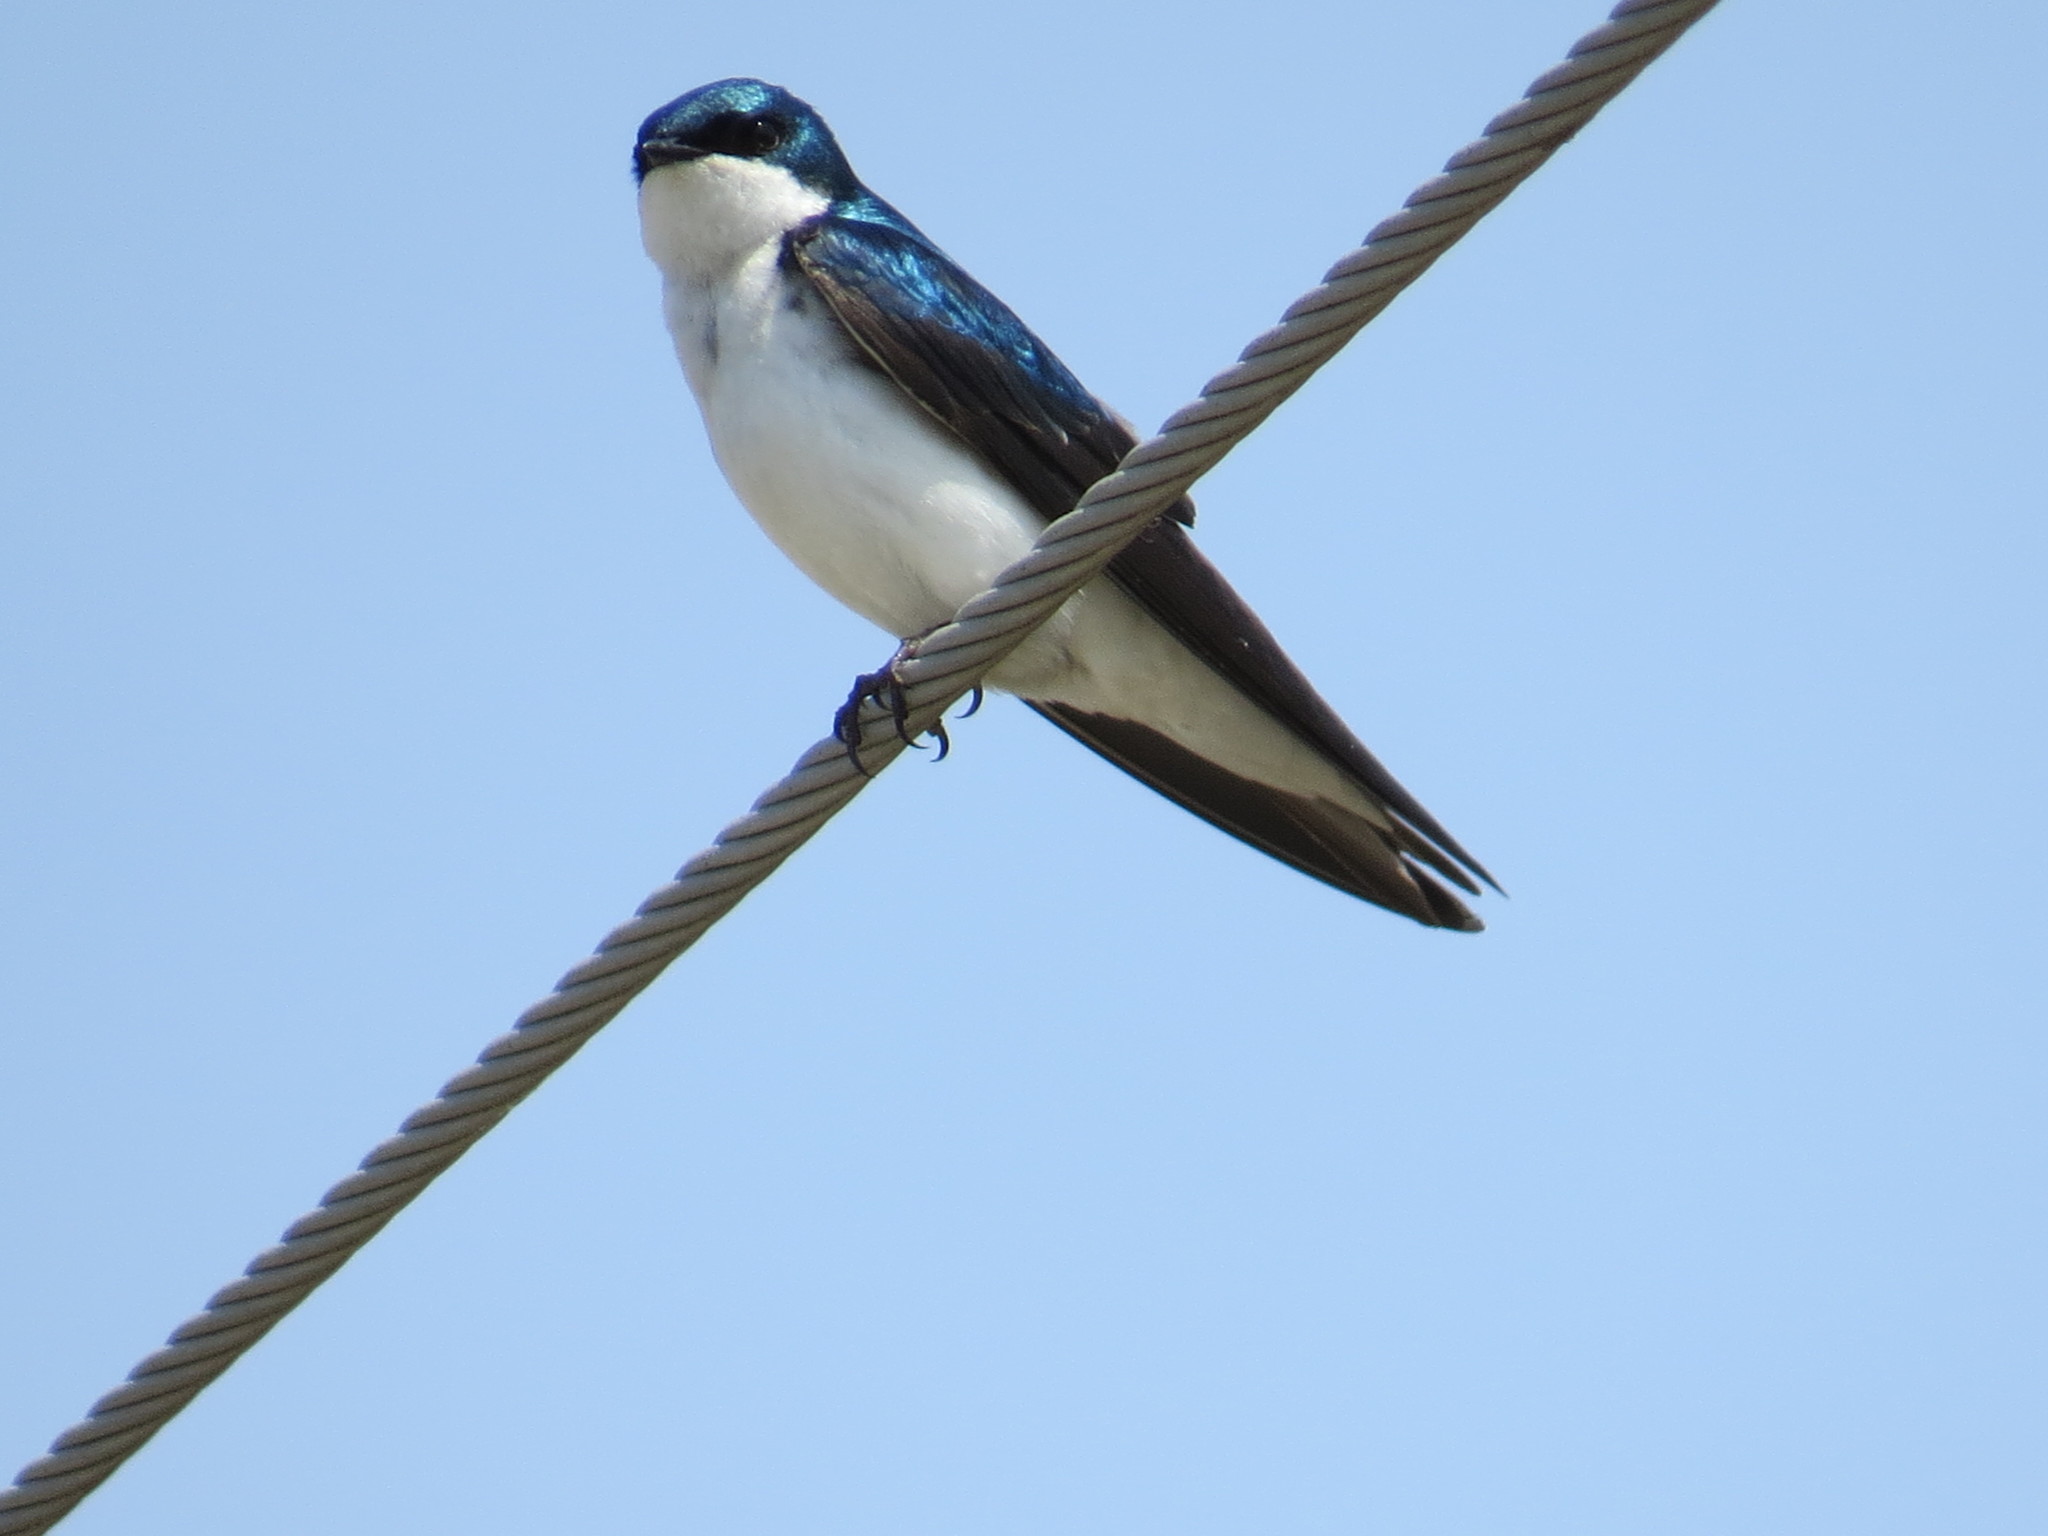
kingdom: Animalia
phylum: Chordata
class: Aves
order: Passeriformes
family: Hirundinidae
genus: Tachycineta
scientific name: Tachycineta bicolor
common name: Tree swallow
